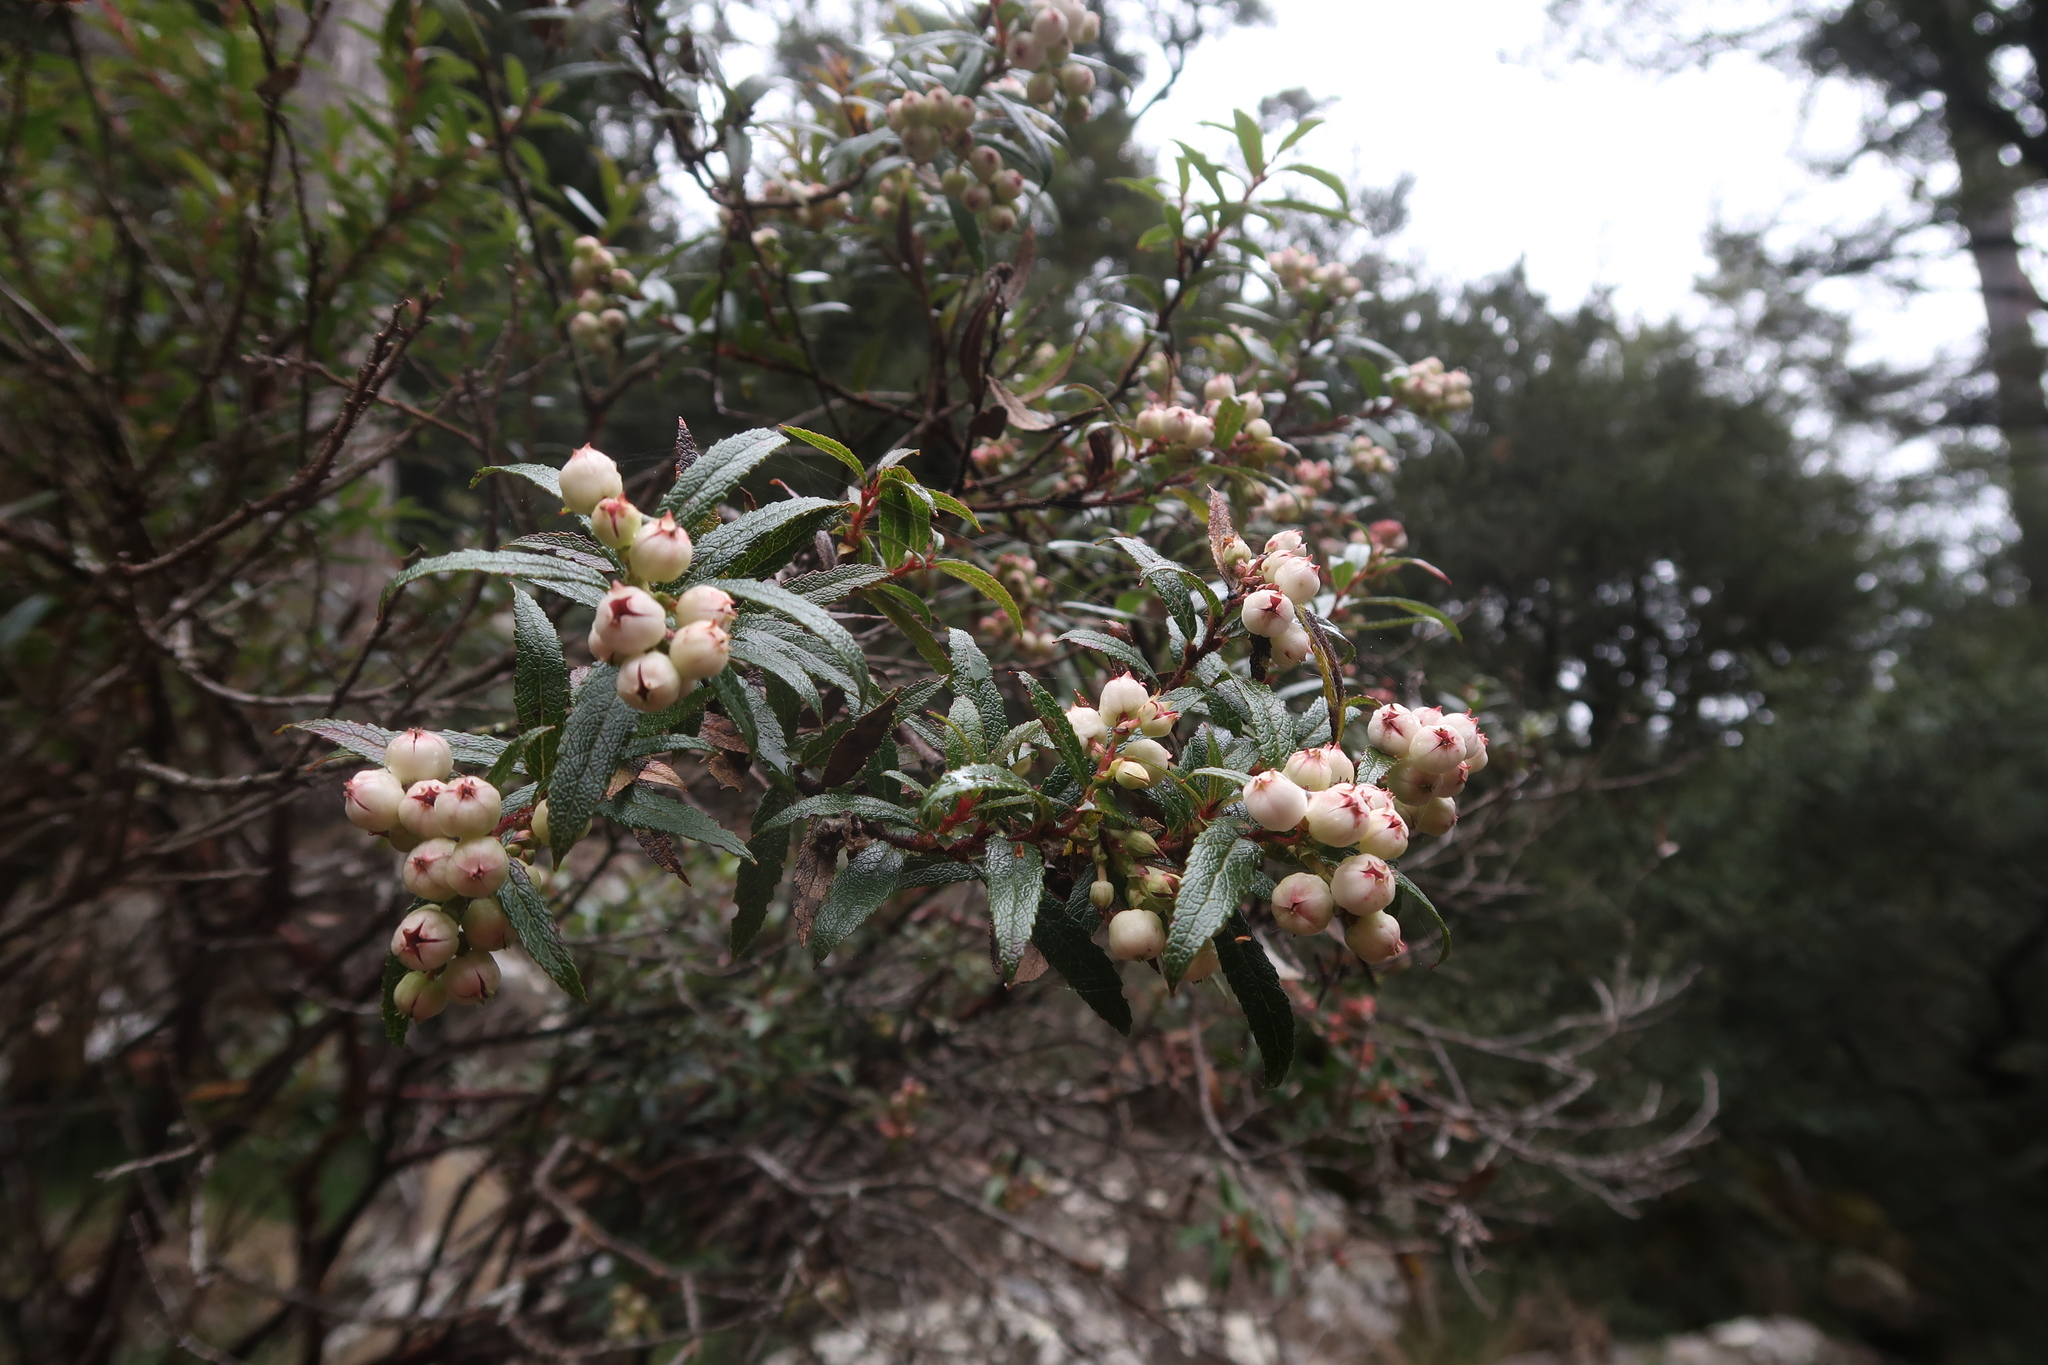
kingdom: Plantae
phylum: Tracheophyta
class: Magnoliopsida
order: Ericales
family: Ericaceae
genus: Gaultheria
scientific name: Gaultheria hispida
